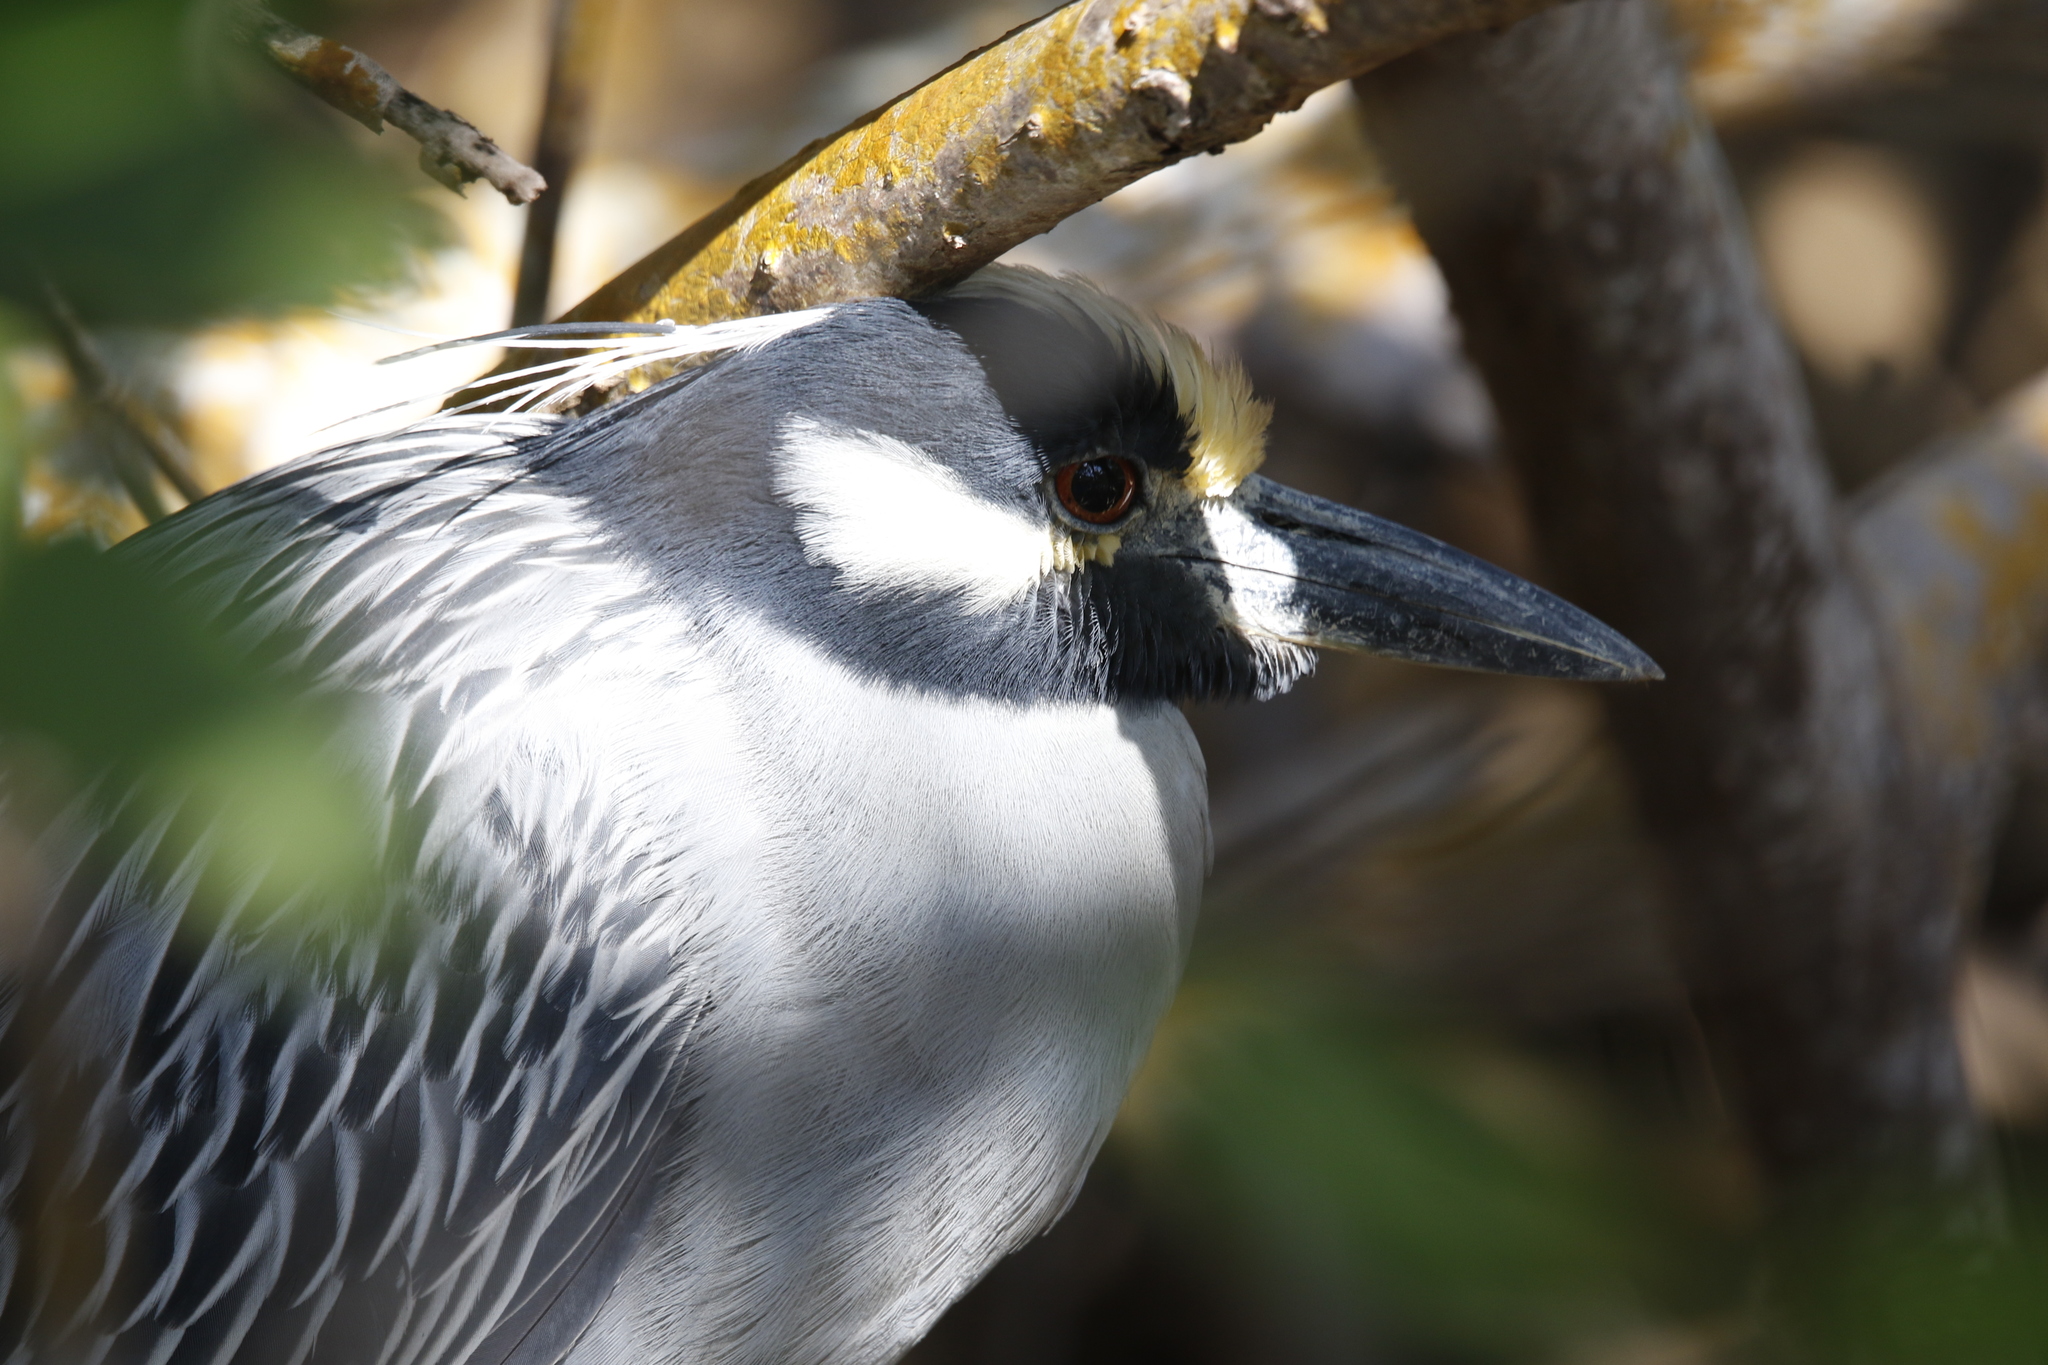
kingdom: Animalia
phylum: Chordata
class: Aves
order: Pelecaniformes
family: Ardeidae
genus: Nyctanassa
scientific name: Nyctanassa violacea
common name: Yellow-crowned night heron
